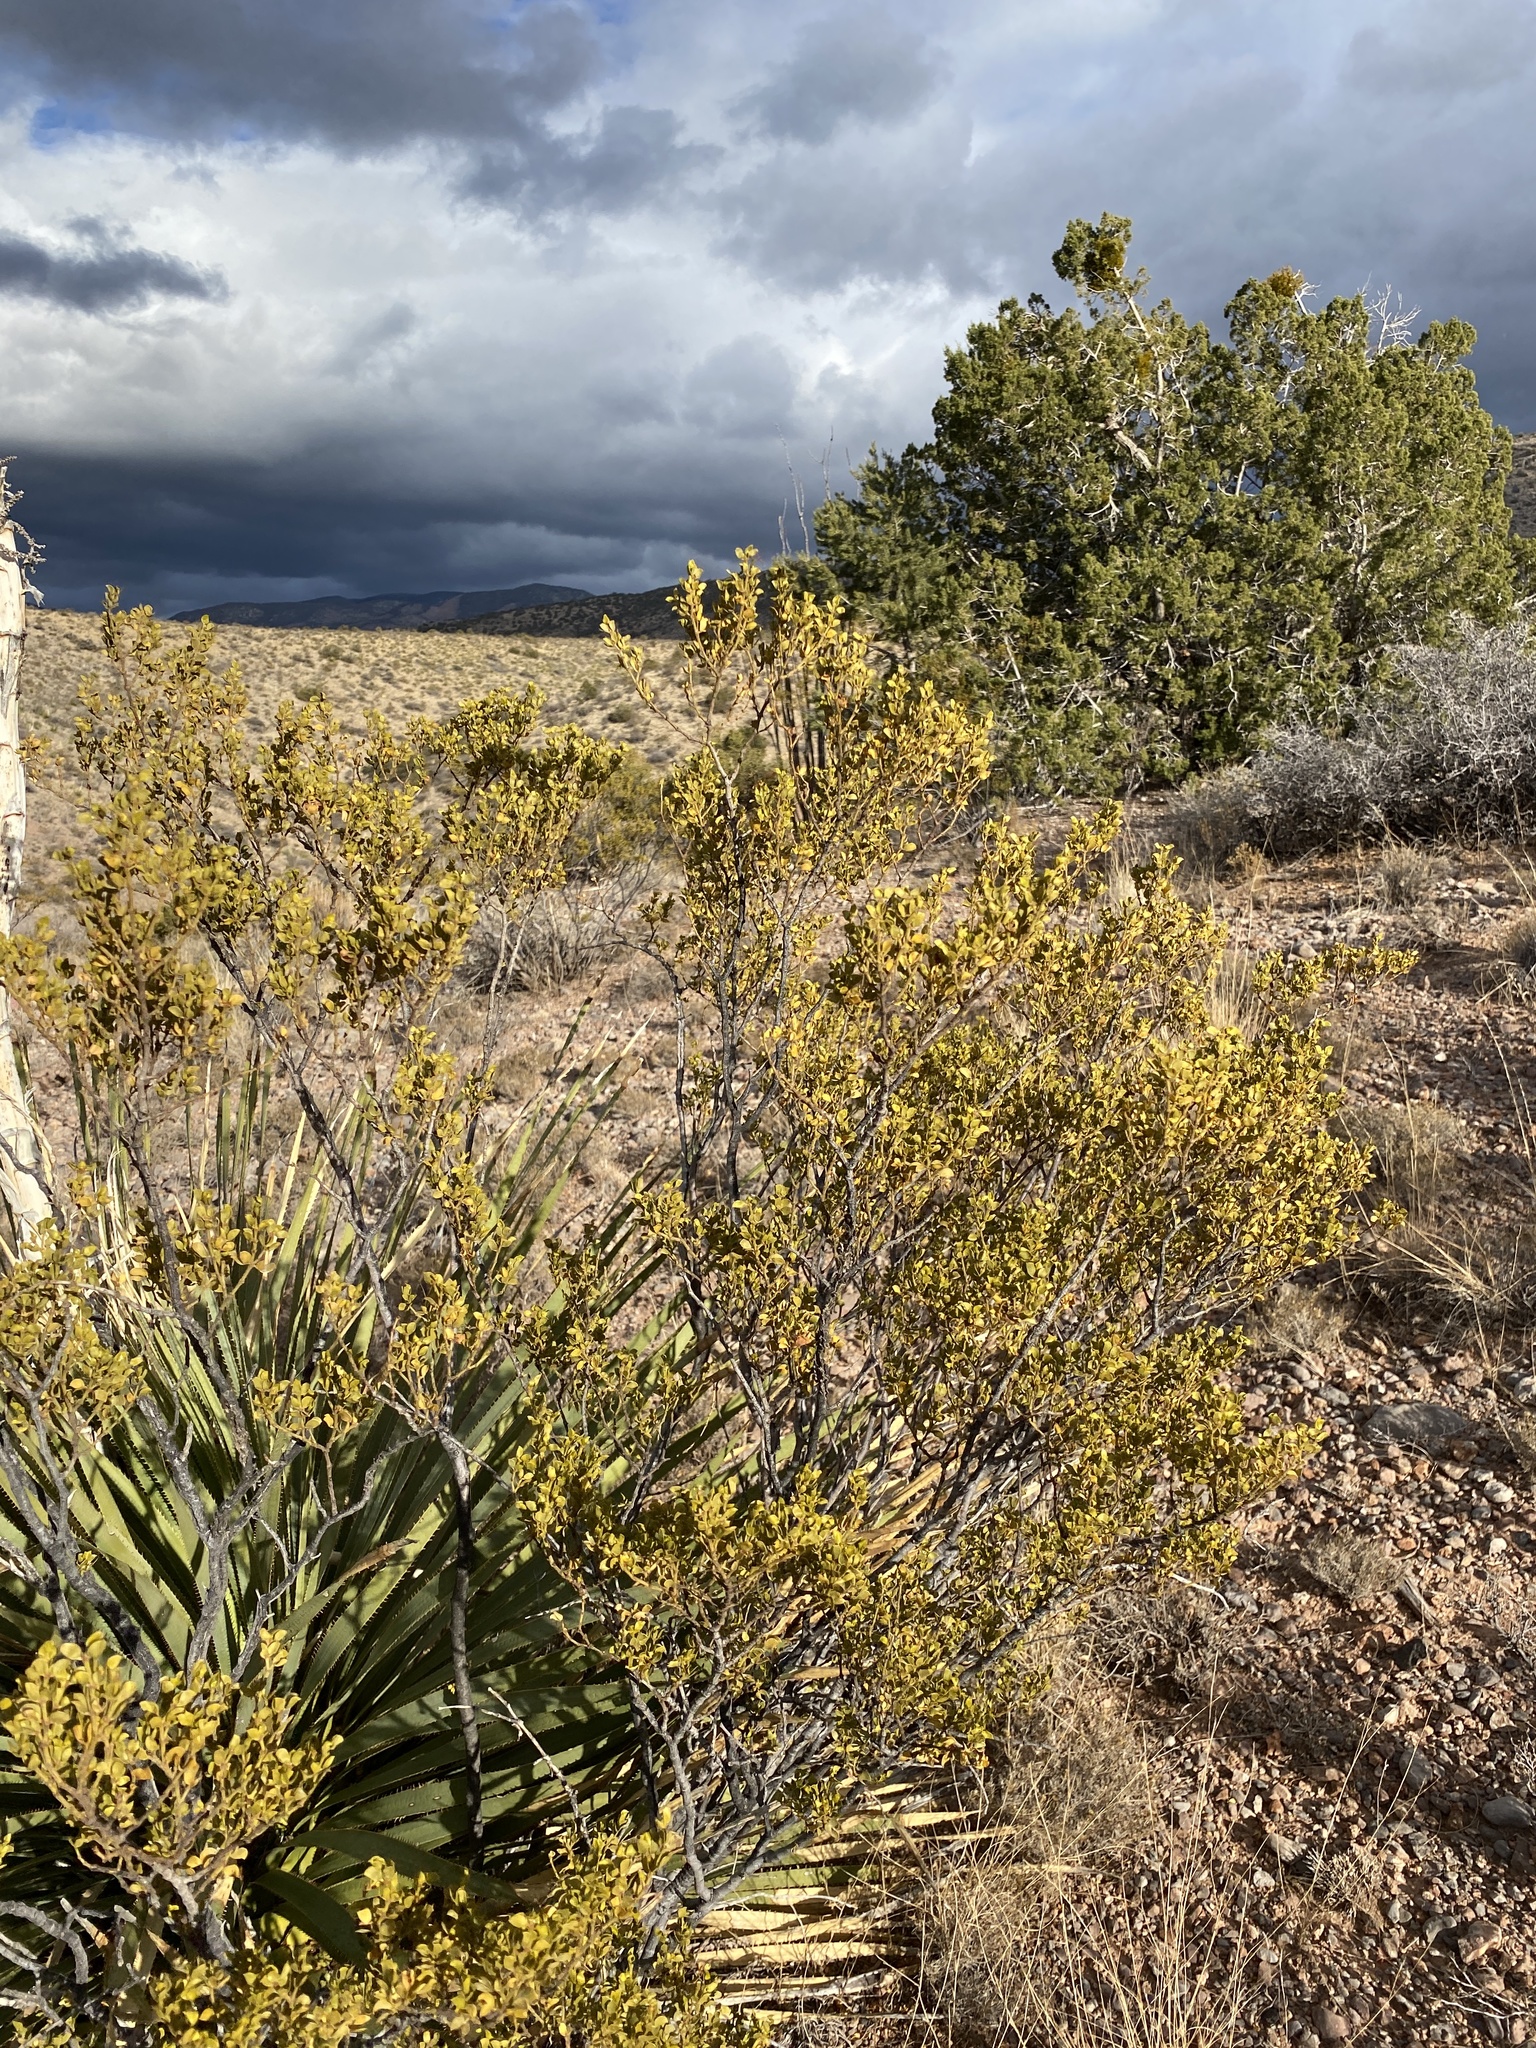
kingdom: Plantae
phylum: Tracheophyta
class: Magnoliopsida
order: Zygophyllales
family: Zygophyllaceae
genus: Larrea
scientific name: Larrea tridentata
